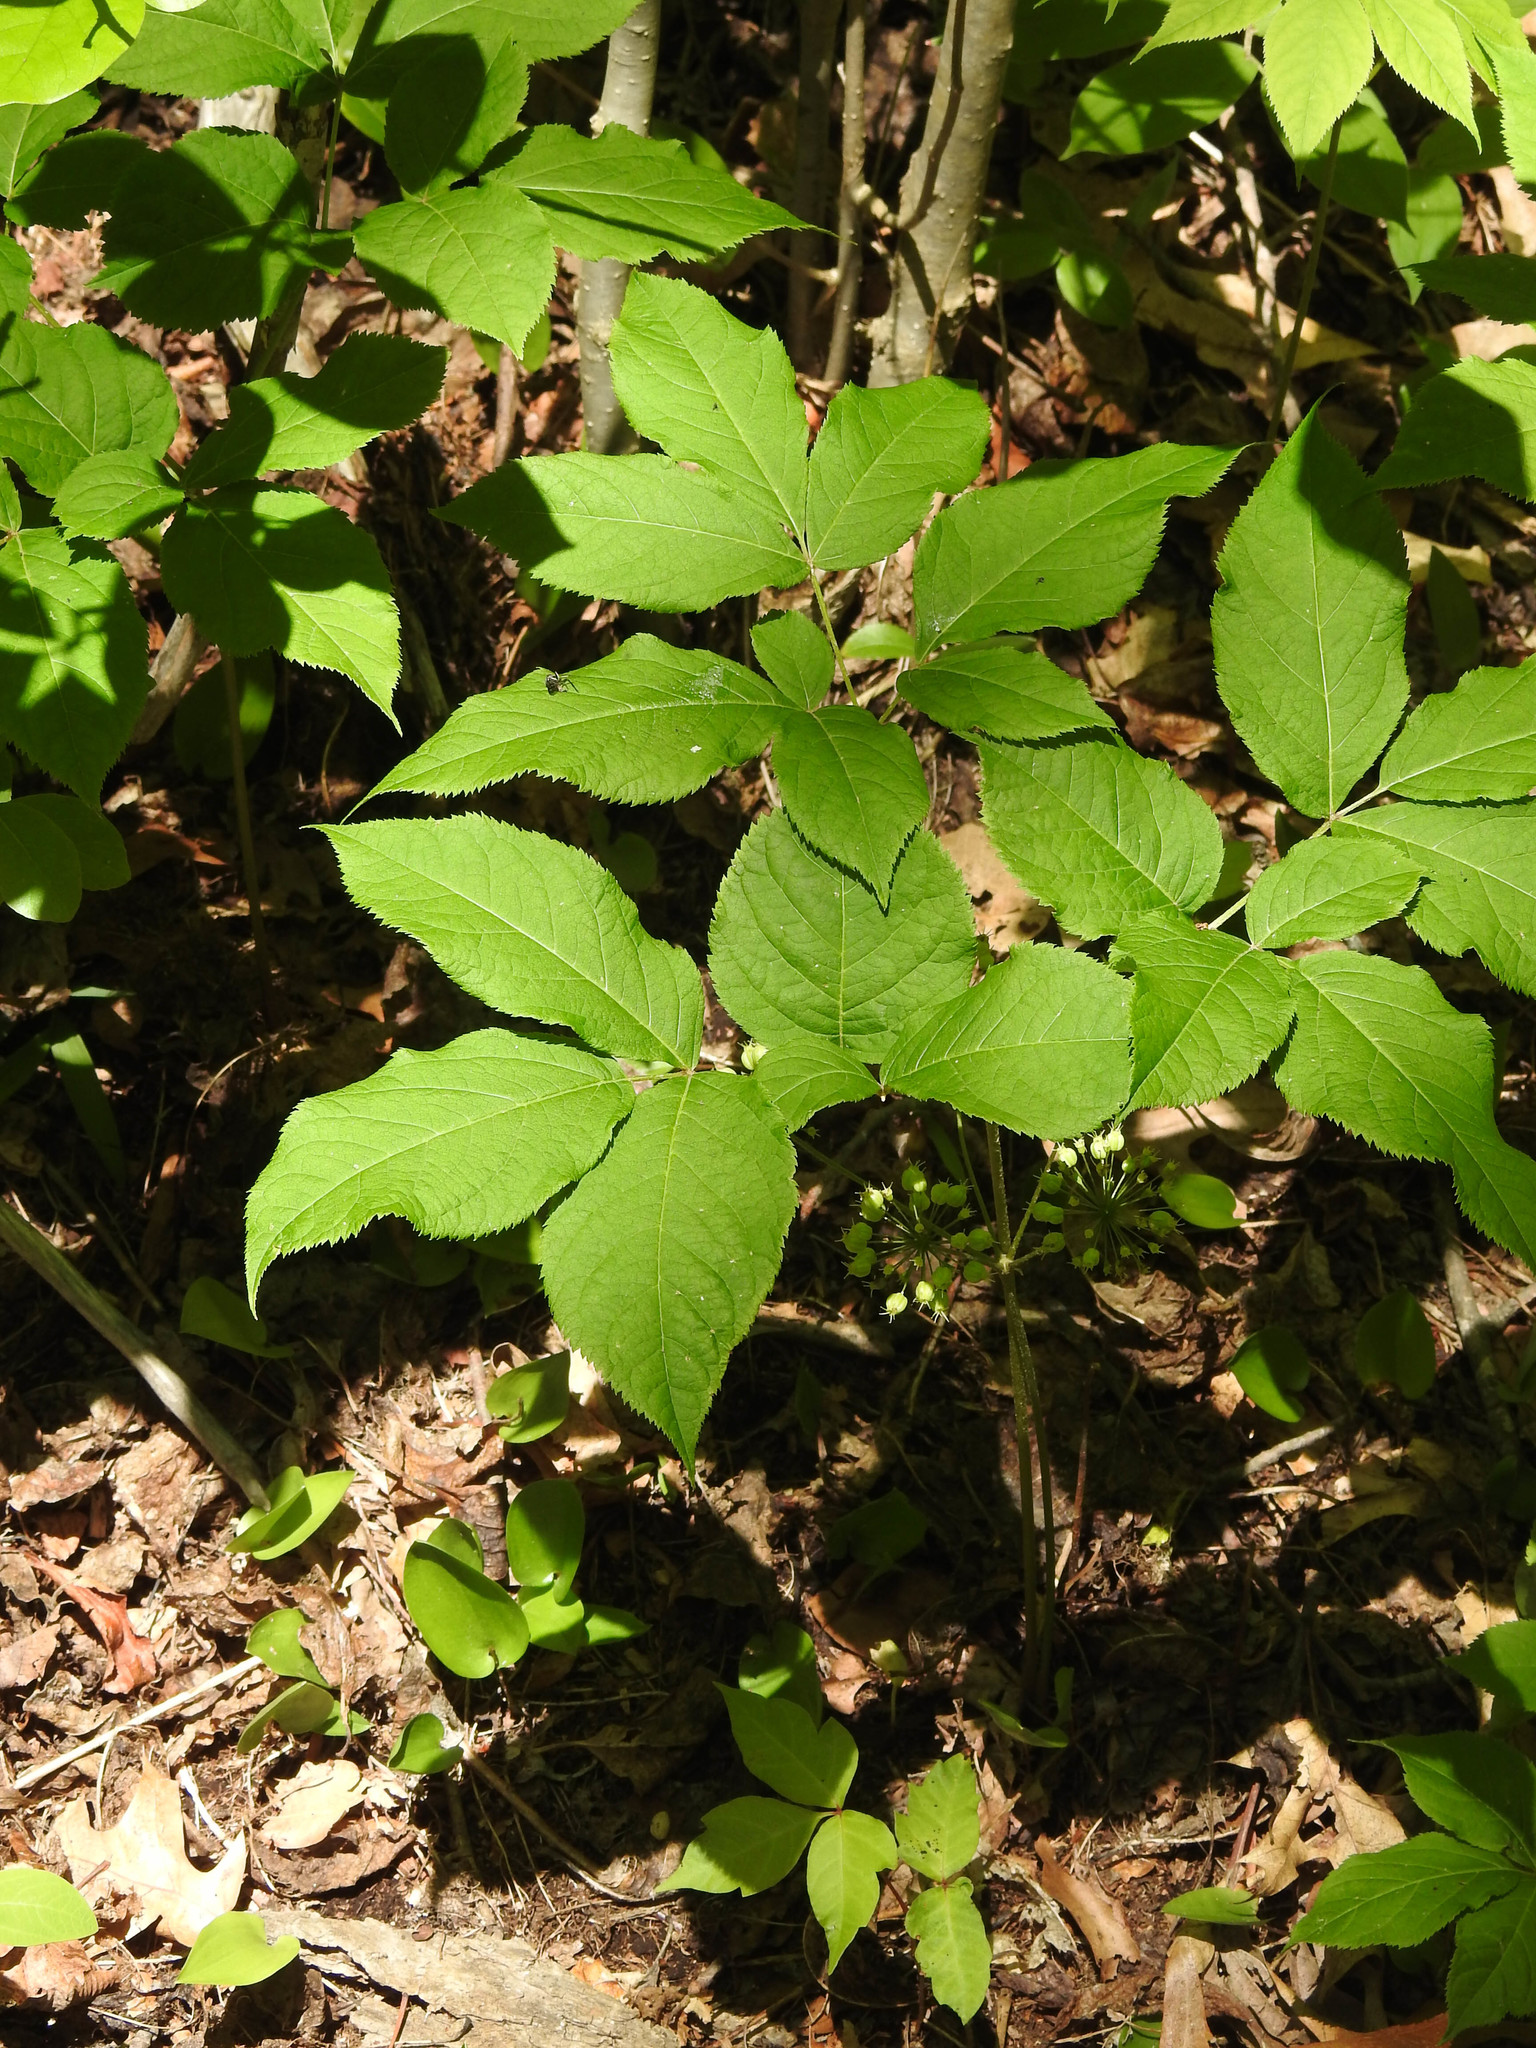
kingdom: Plantae
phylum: Tracheophyta
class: Magnoliopsida
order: Apiales
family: Araliaceae
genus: Aralia
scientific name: Aralia nudicaulis
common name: Wild sarsaparilla
